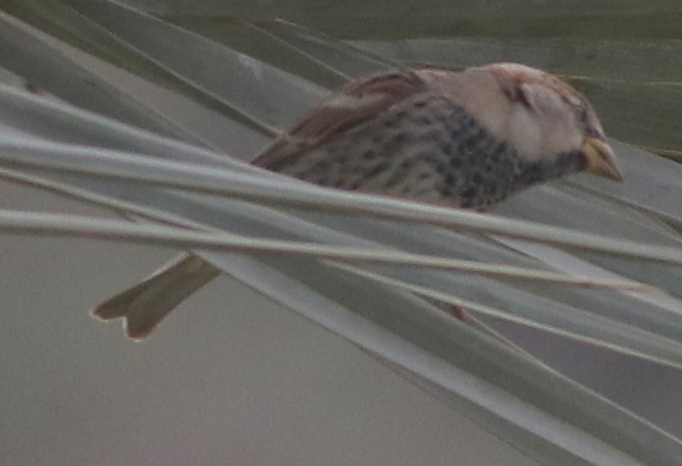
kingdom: Animalia
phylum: Chordata
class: Aves
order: Passeriformes
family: Passeridae
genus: Passer
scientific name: Passer hispaniolensis
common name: Spanish sparrow
